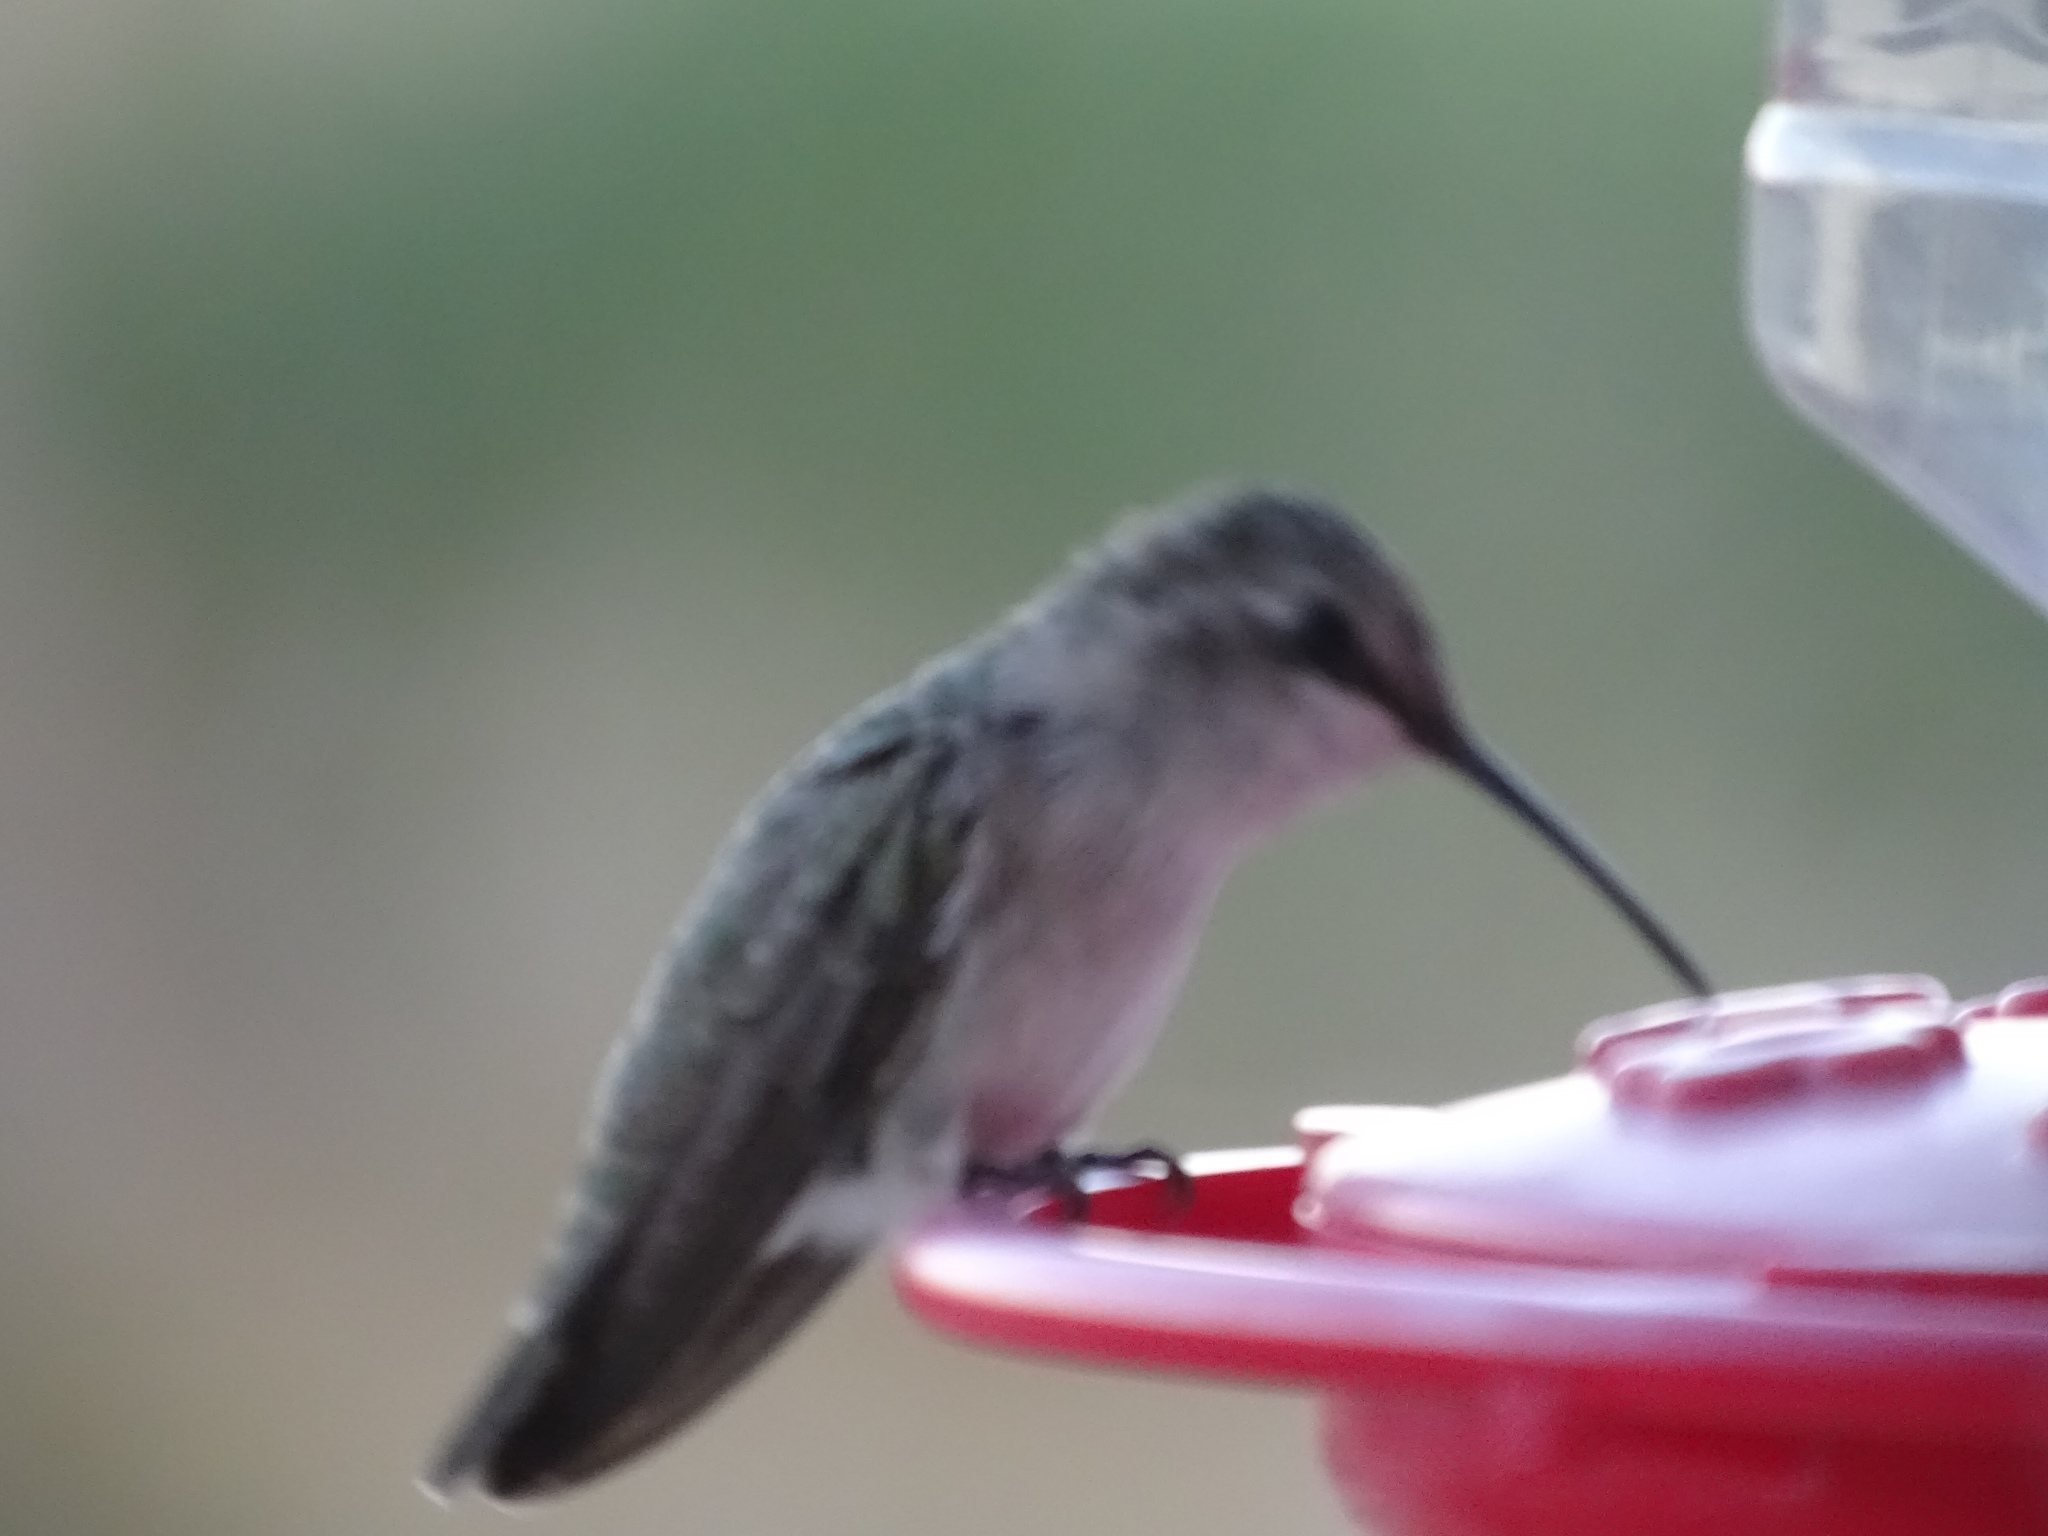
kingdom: Animalia
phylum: Chordata
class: Aves
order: Apodiformes
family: Trochilidae
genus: Calypte
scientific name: Calypte costae
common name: Costa's hummingbird
